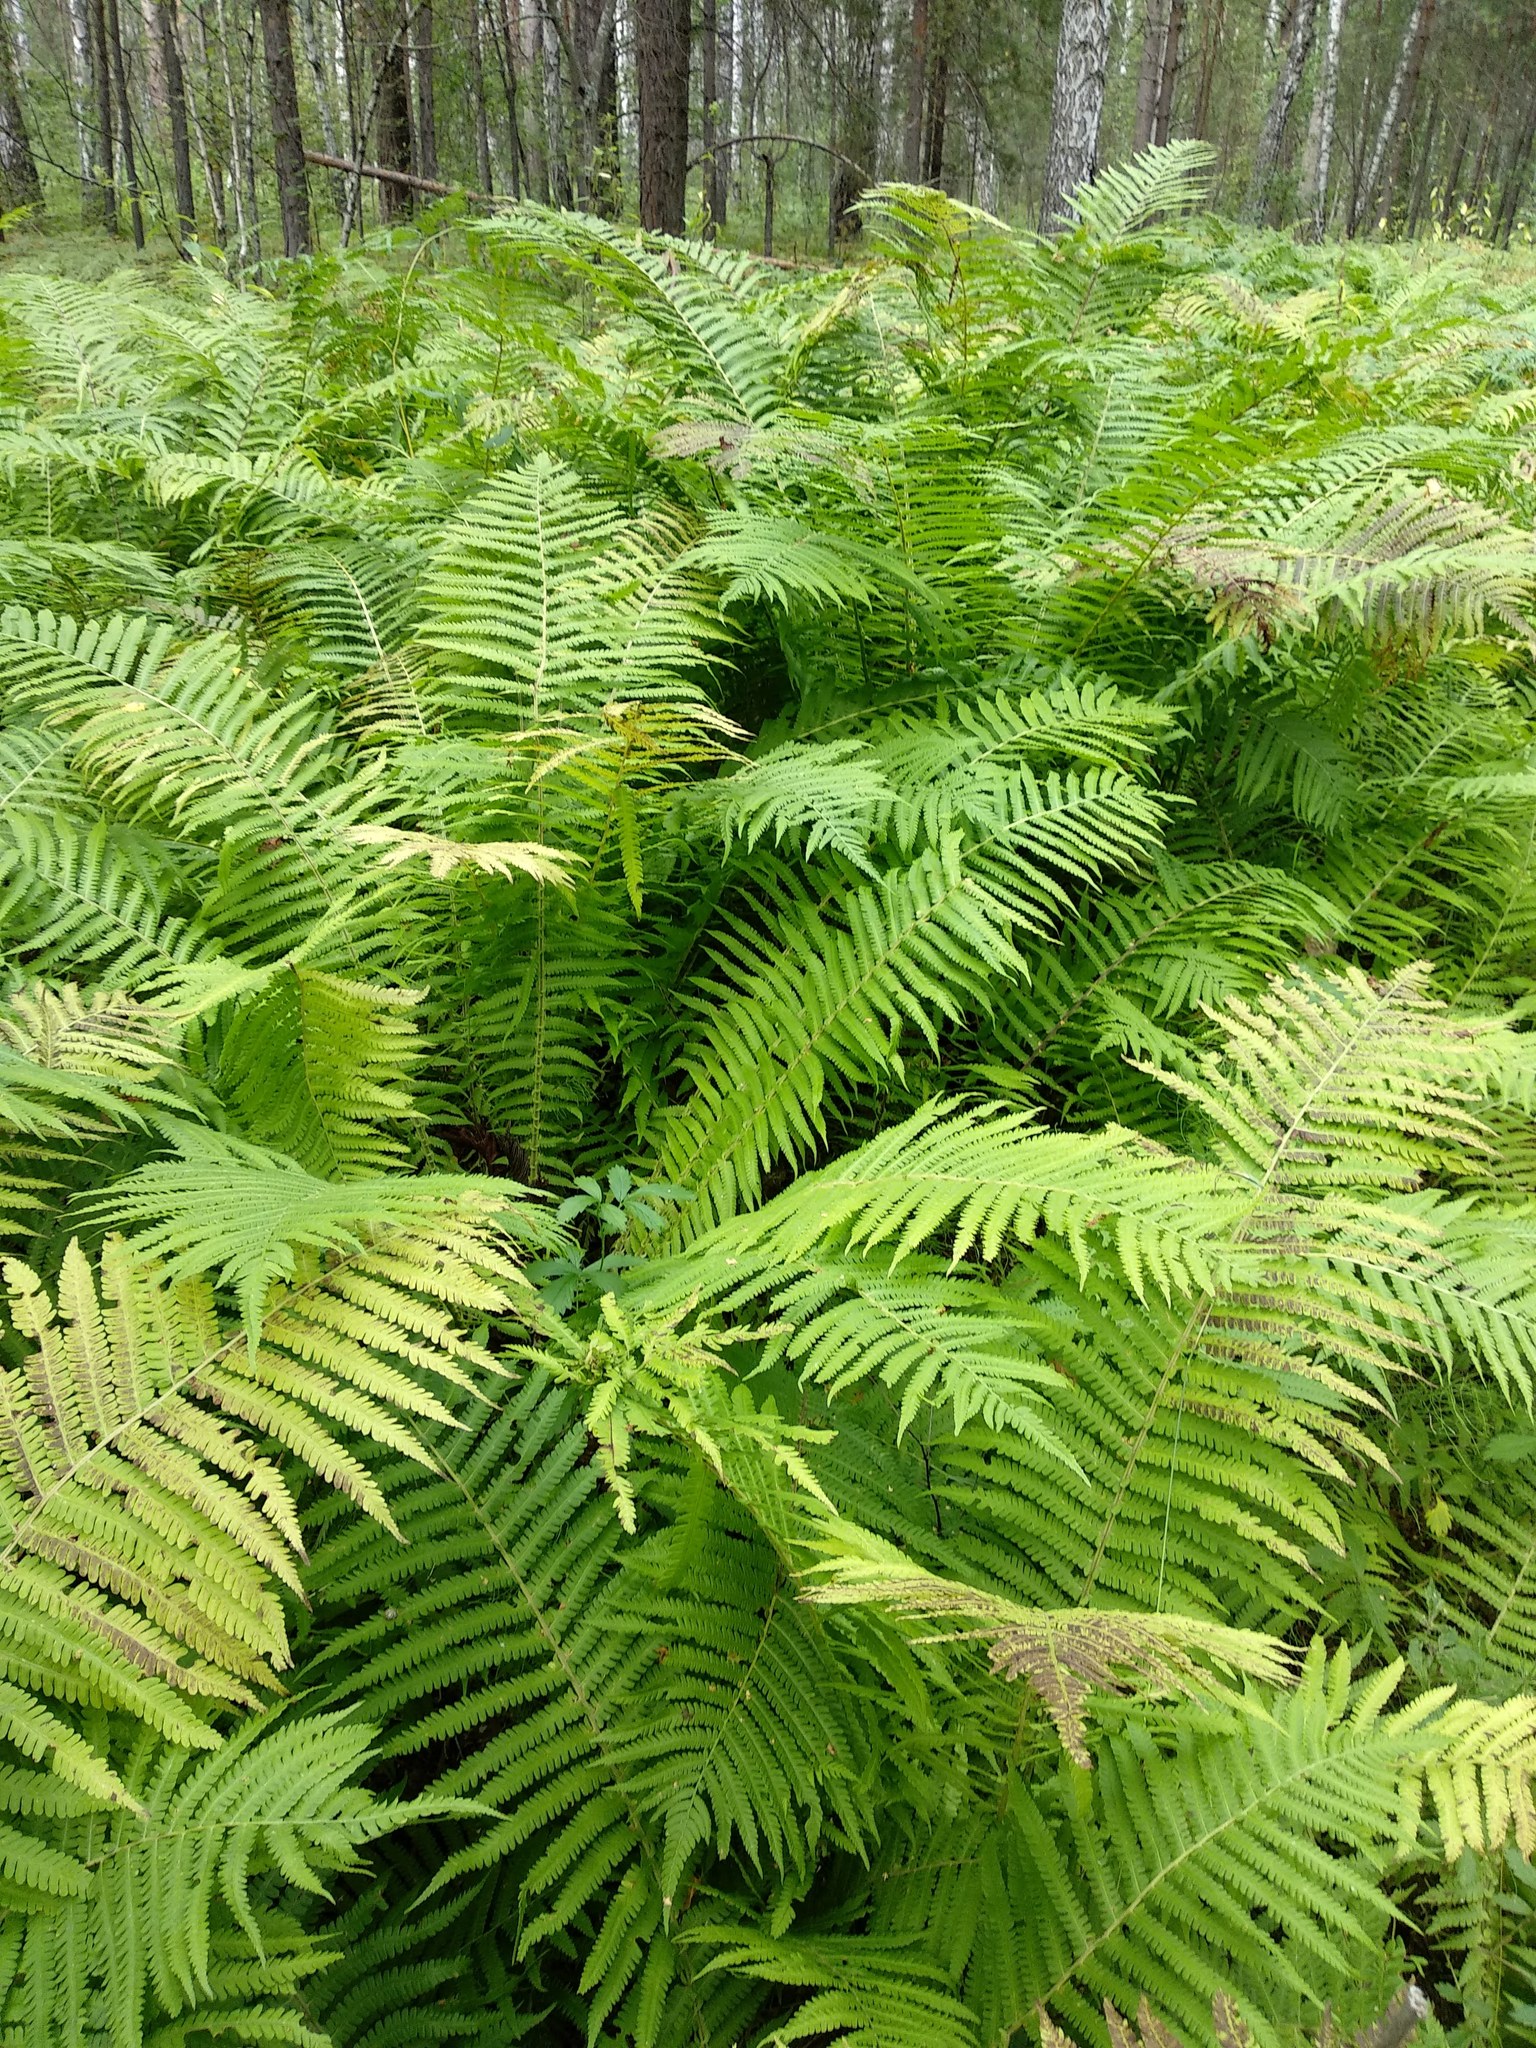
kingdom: Plantae
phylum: Tracheophyta
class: Polypodiopsida
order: Polypodiales
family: Onocleaceae
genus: Matteuccia
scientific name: Matteuccia struthiopteris
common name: Ostrich fern
